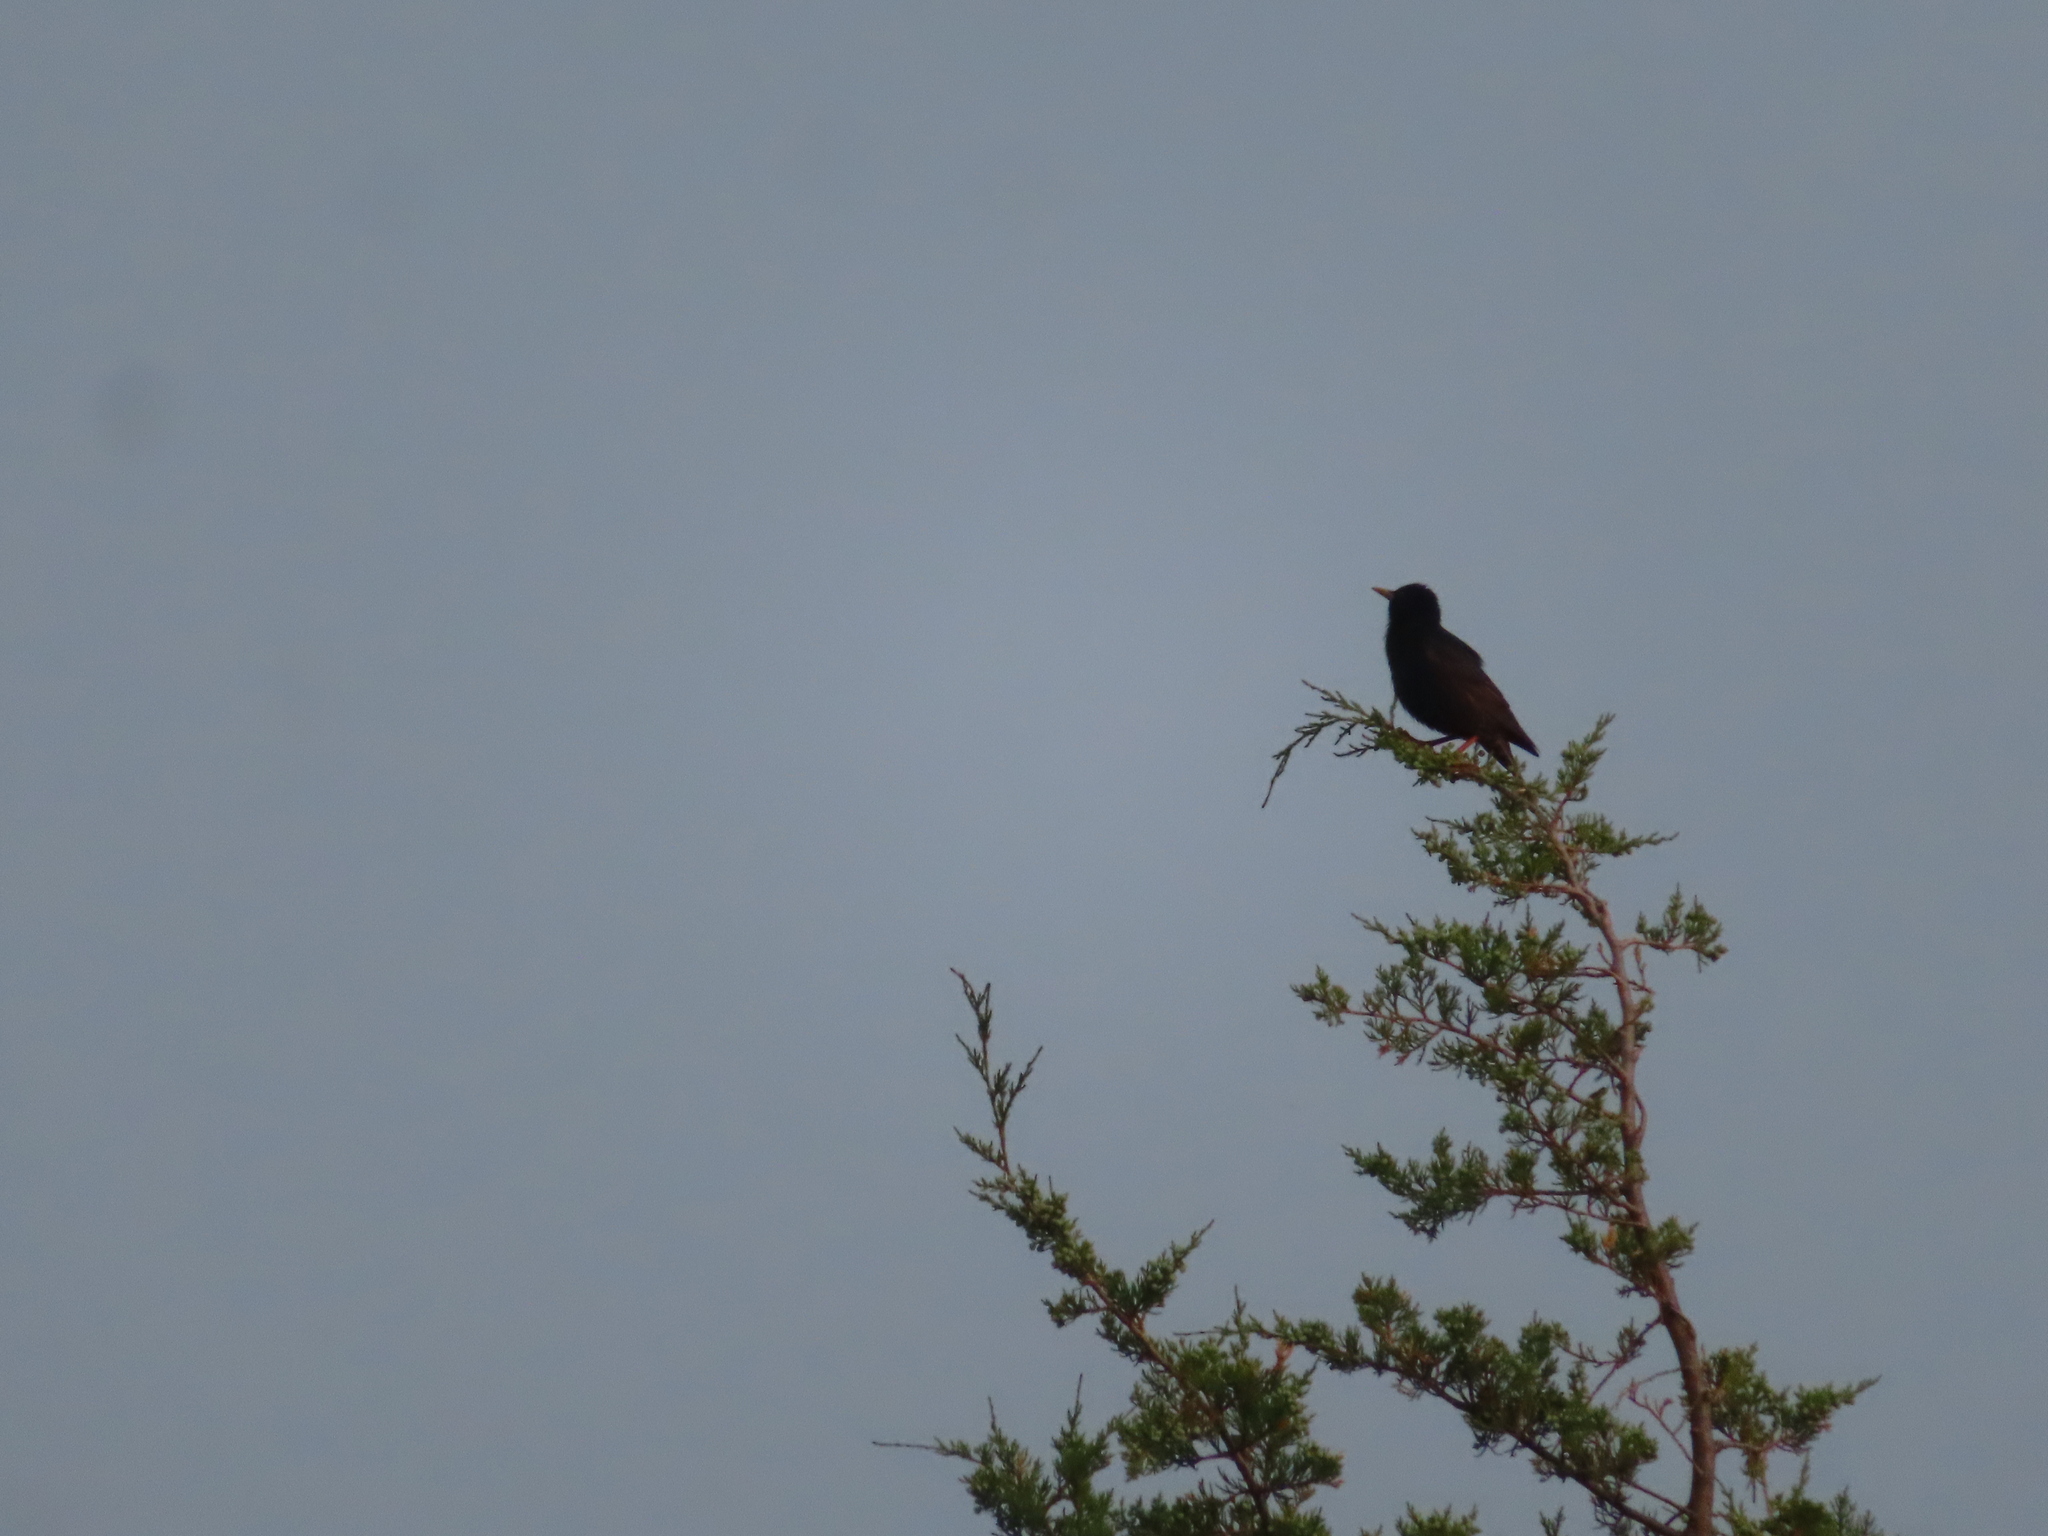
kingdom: Animalia
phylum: Chordata
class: Aves
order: Passeriformes
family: Sturnidae
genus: Sturnus
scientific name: Sturnus vulgaris
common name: Common starling
